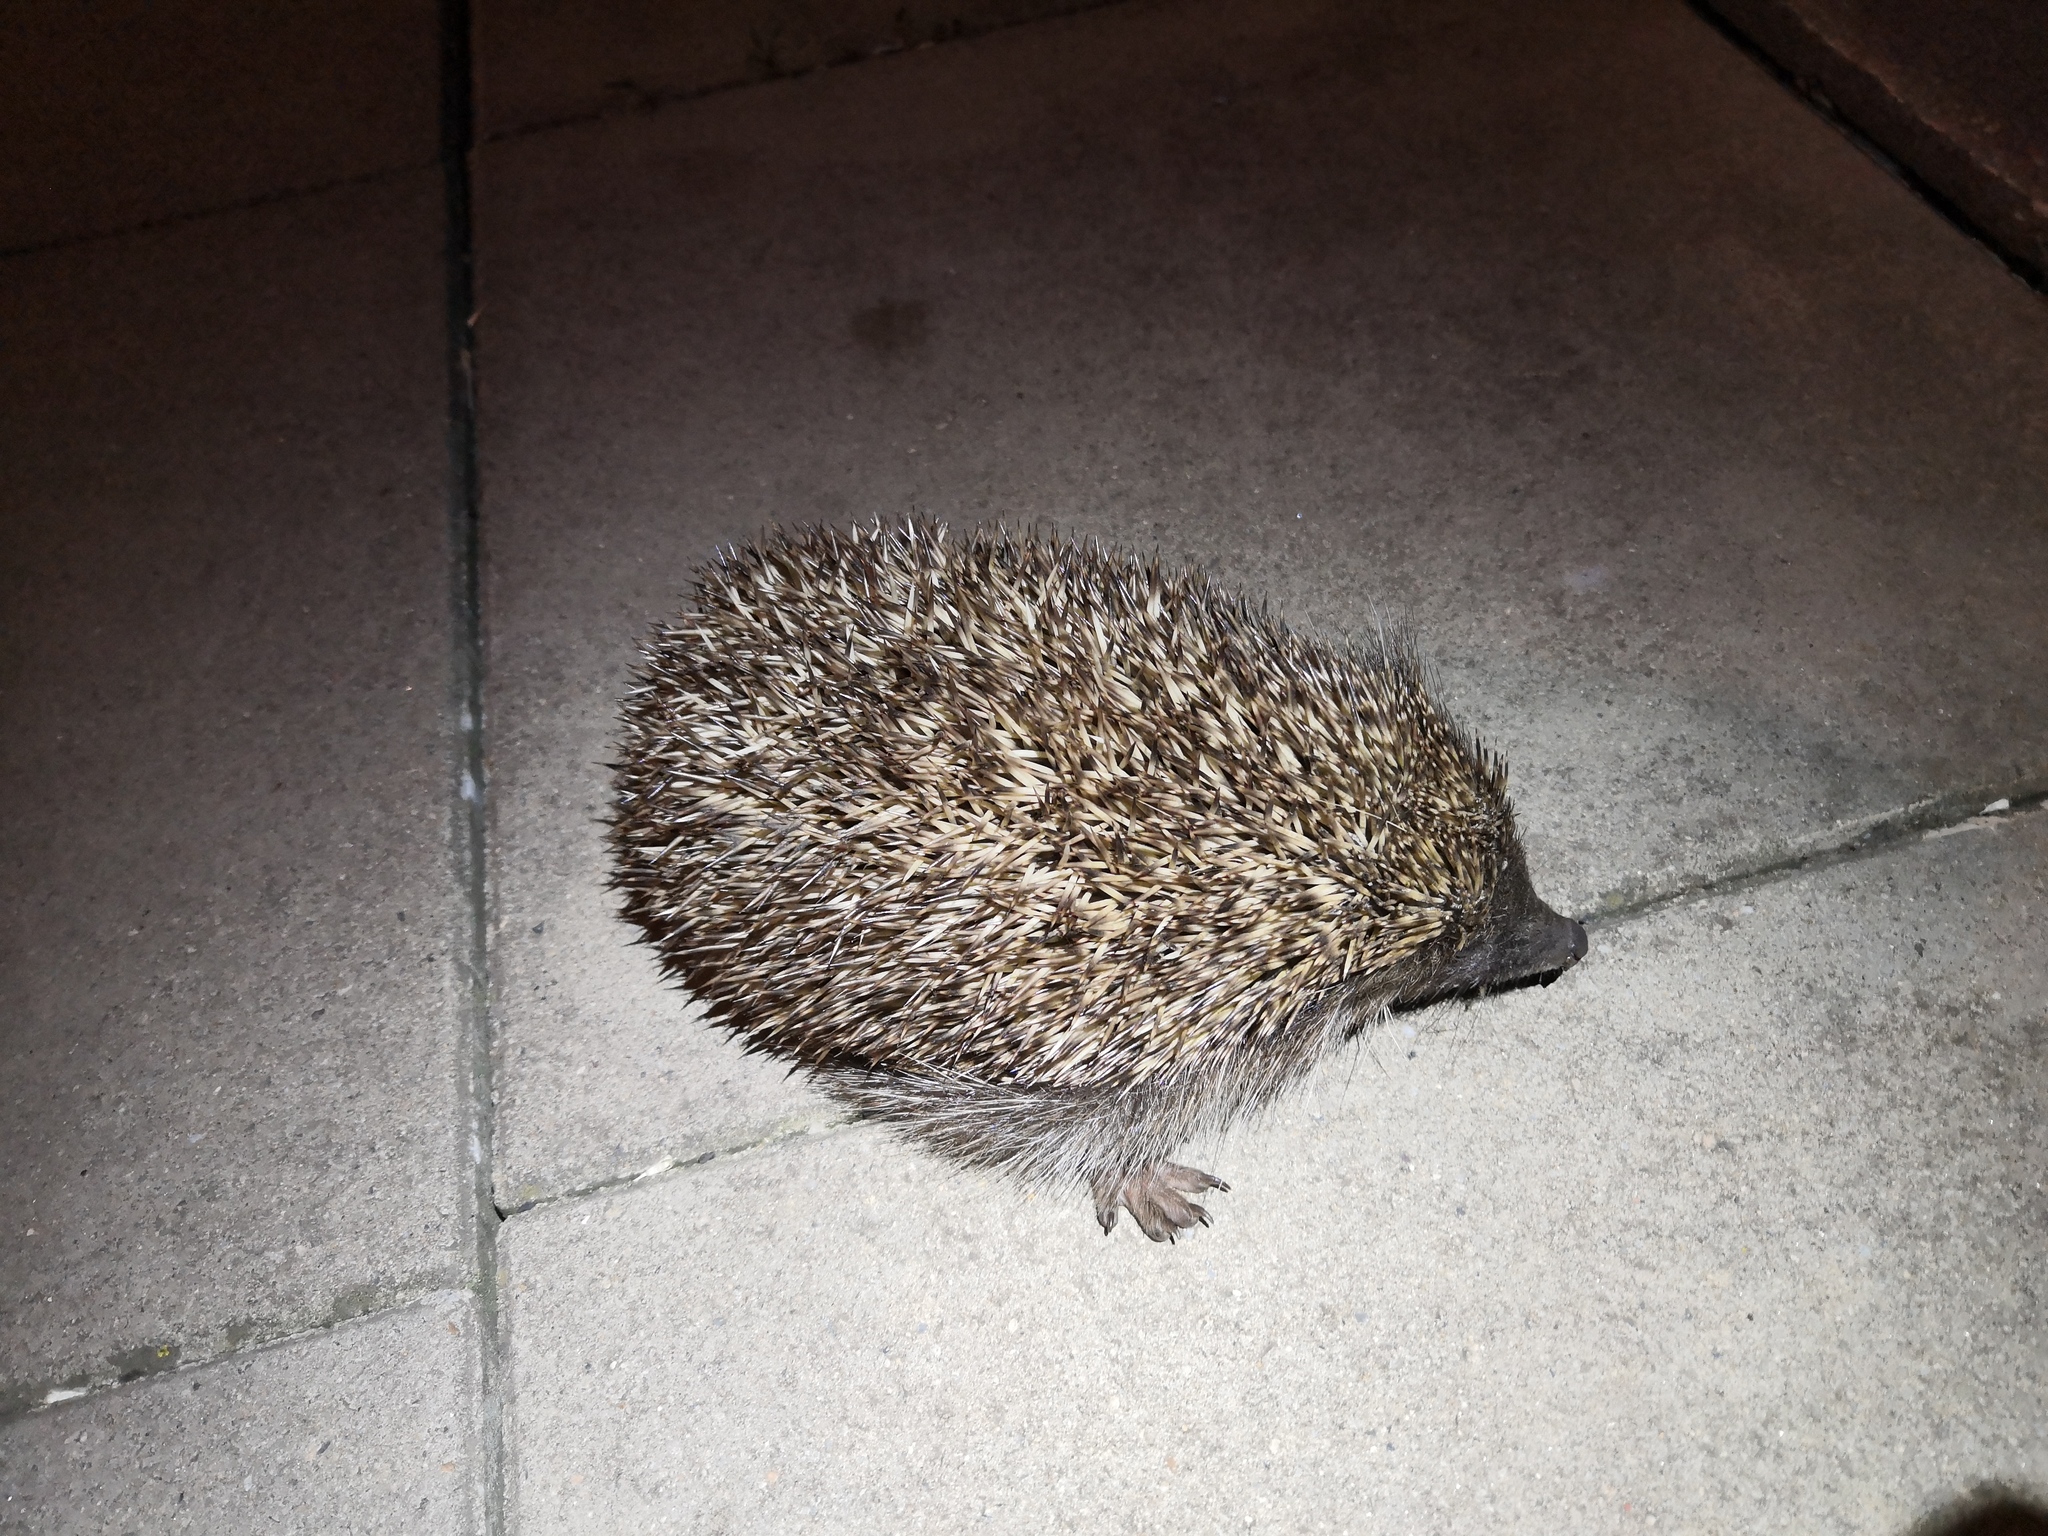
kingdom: Animalia
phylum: Chordata
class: Mammalia
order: Erinaceomorpha
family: Erinaceidae
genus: Erinaceus
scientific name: Erinaceus roumanicus
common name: Northern white-breasted hedgehog
